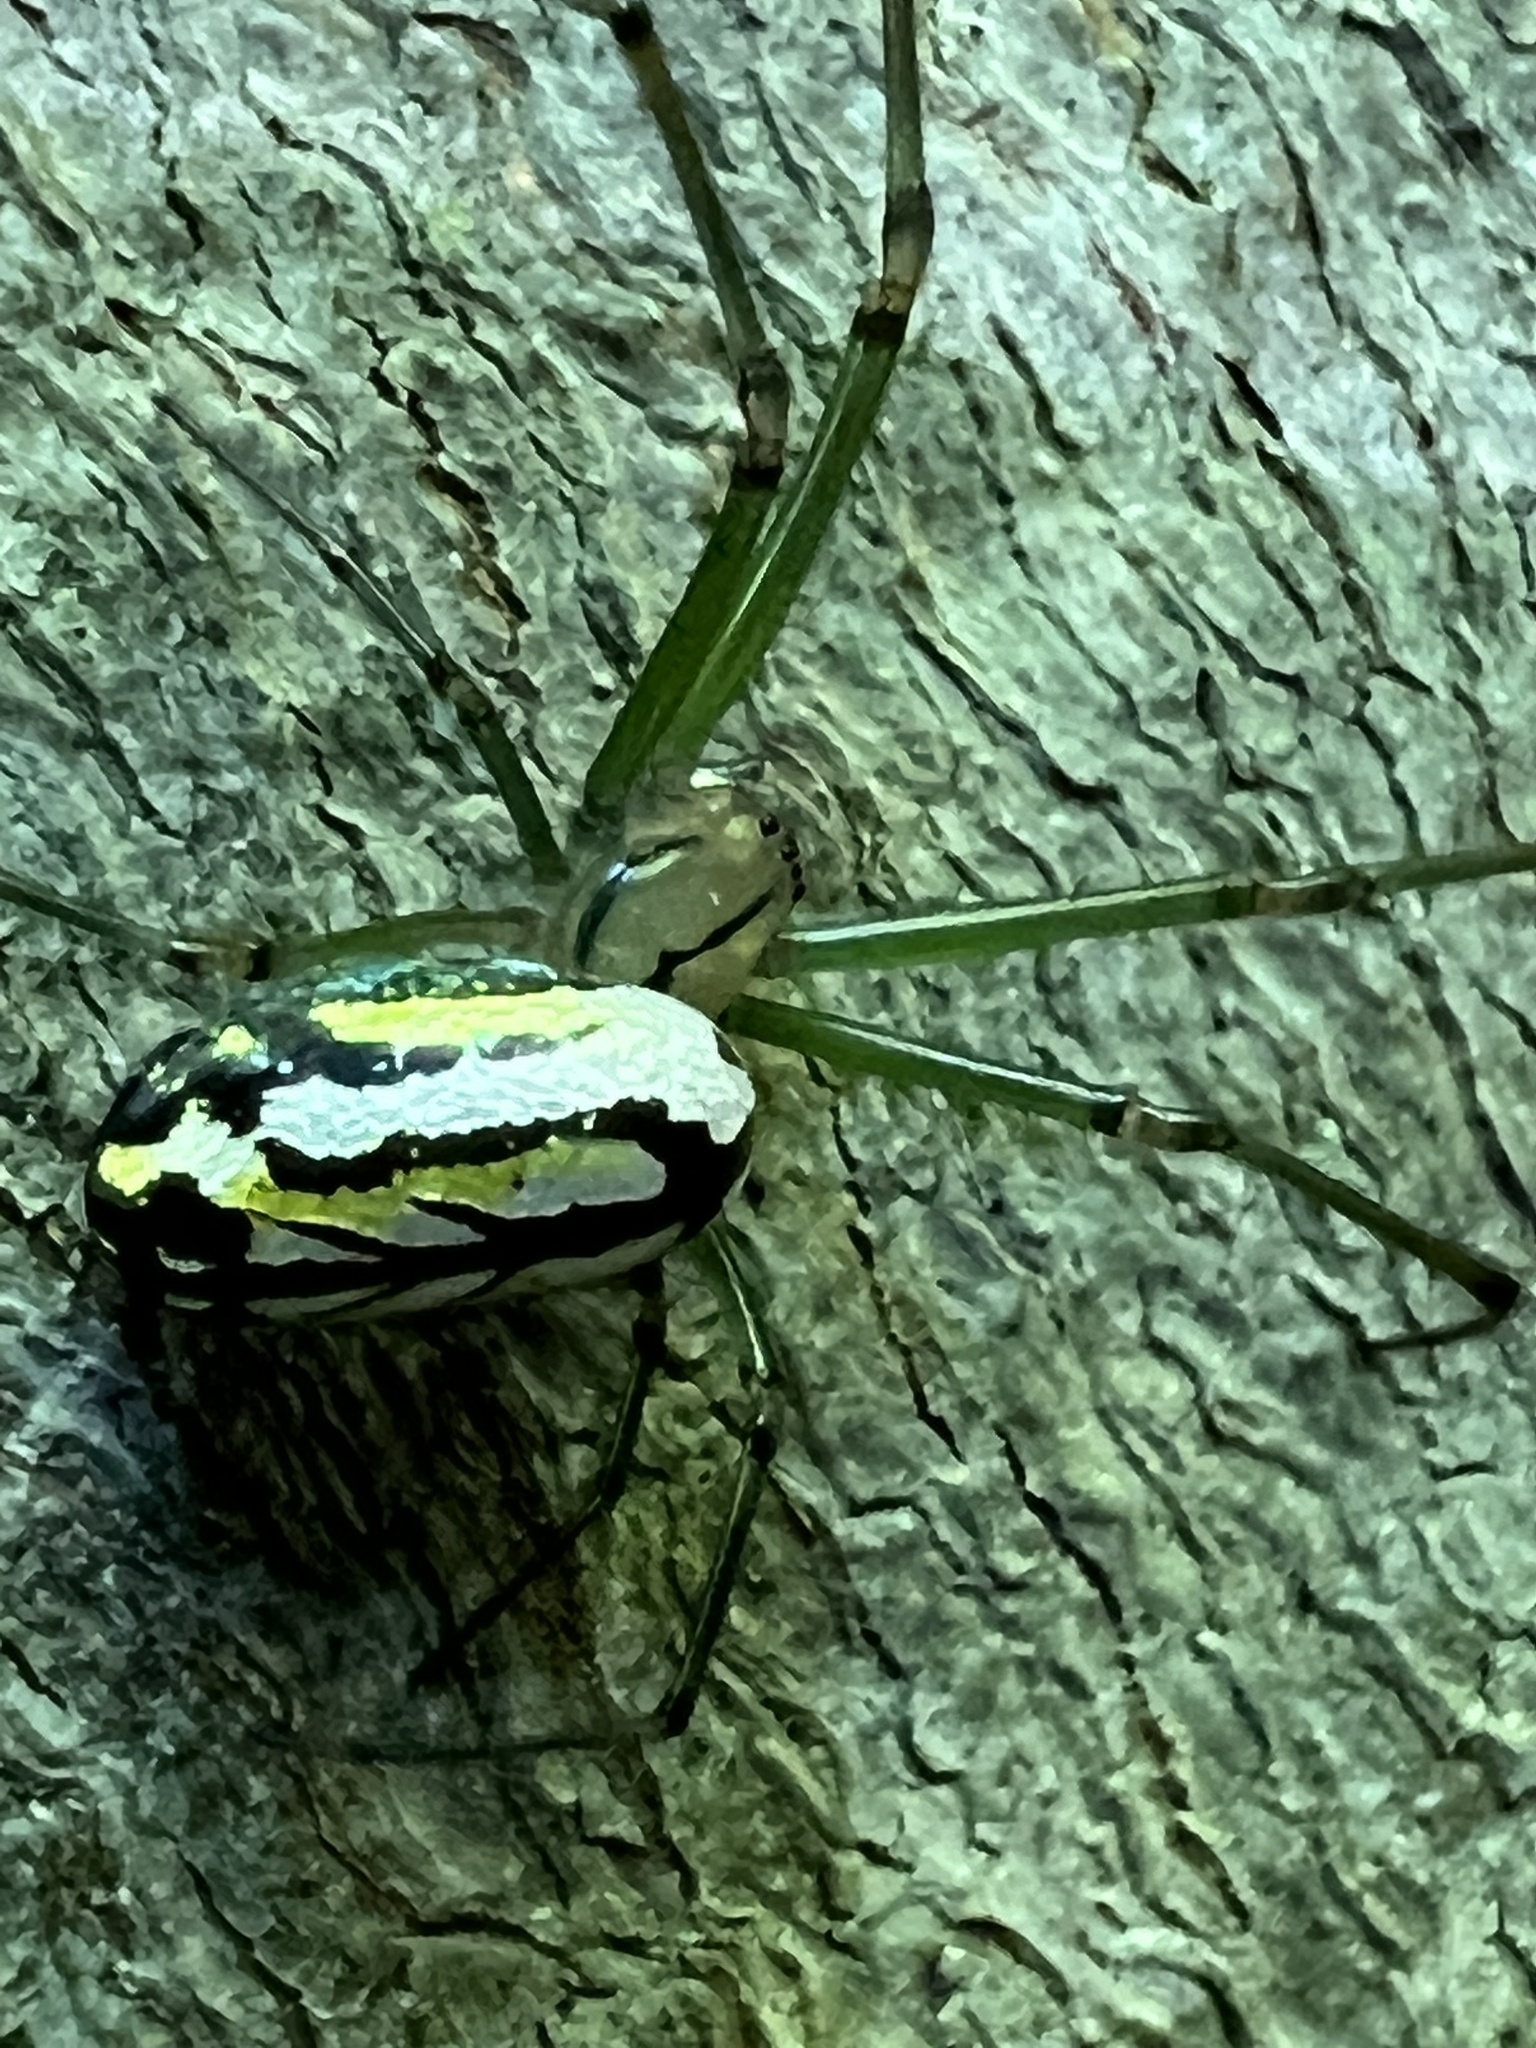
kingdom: Animalia
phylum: Arthropoda
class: Arachnida
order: Araneae
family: Tetragnathidae
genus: Leucauge
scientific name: Leucauge venusta
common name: Longjawed orb weavers
